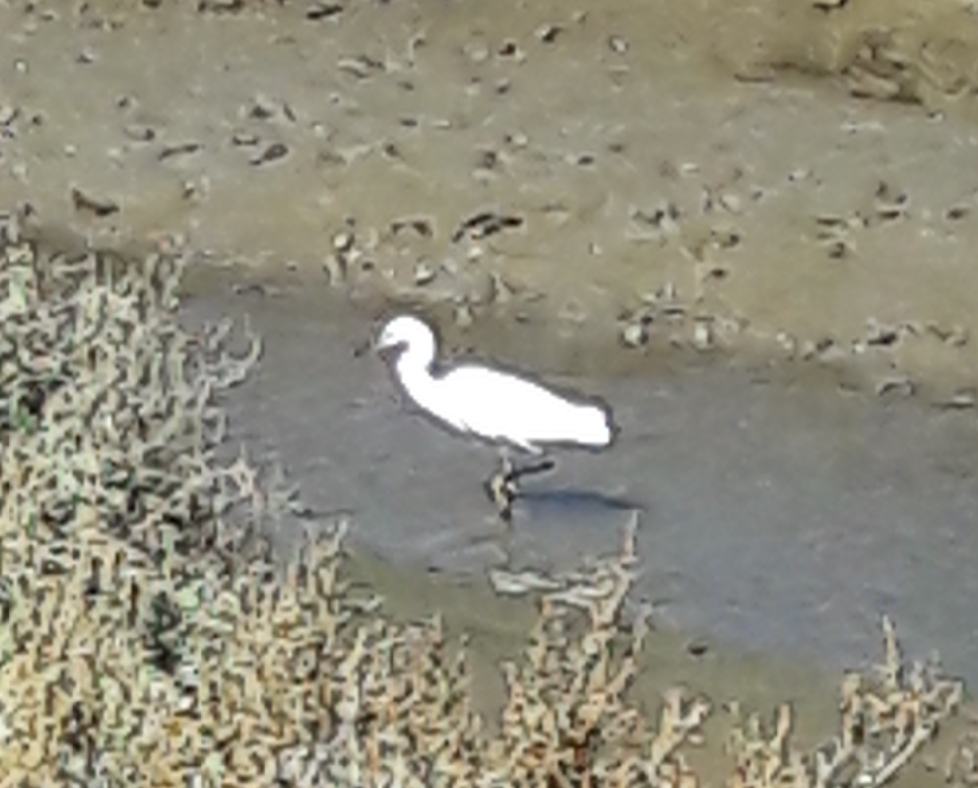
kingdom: Animalia
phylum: Chordata
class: Aves
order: Pelecaniformes
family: Ardeidae
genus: Egretta
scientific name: Egretta garzetta
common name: Little egret
